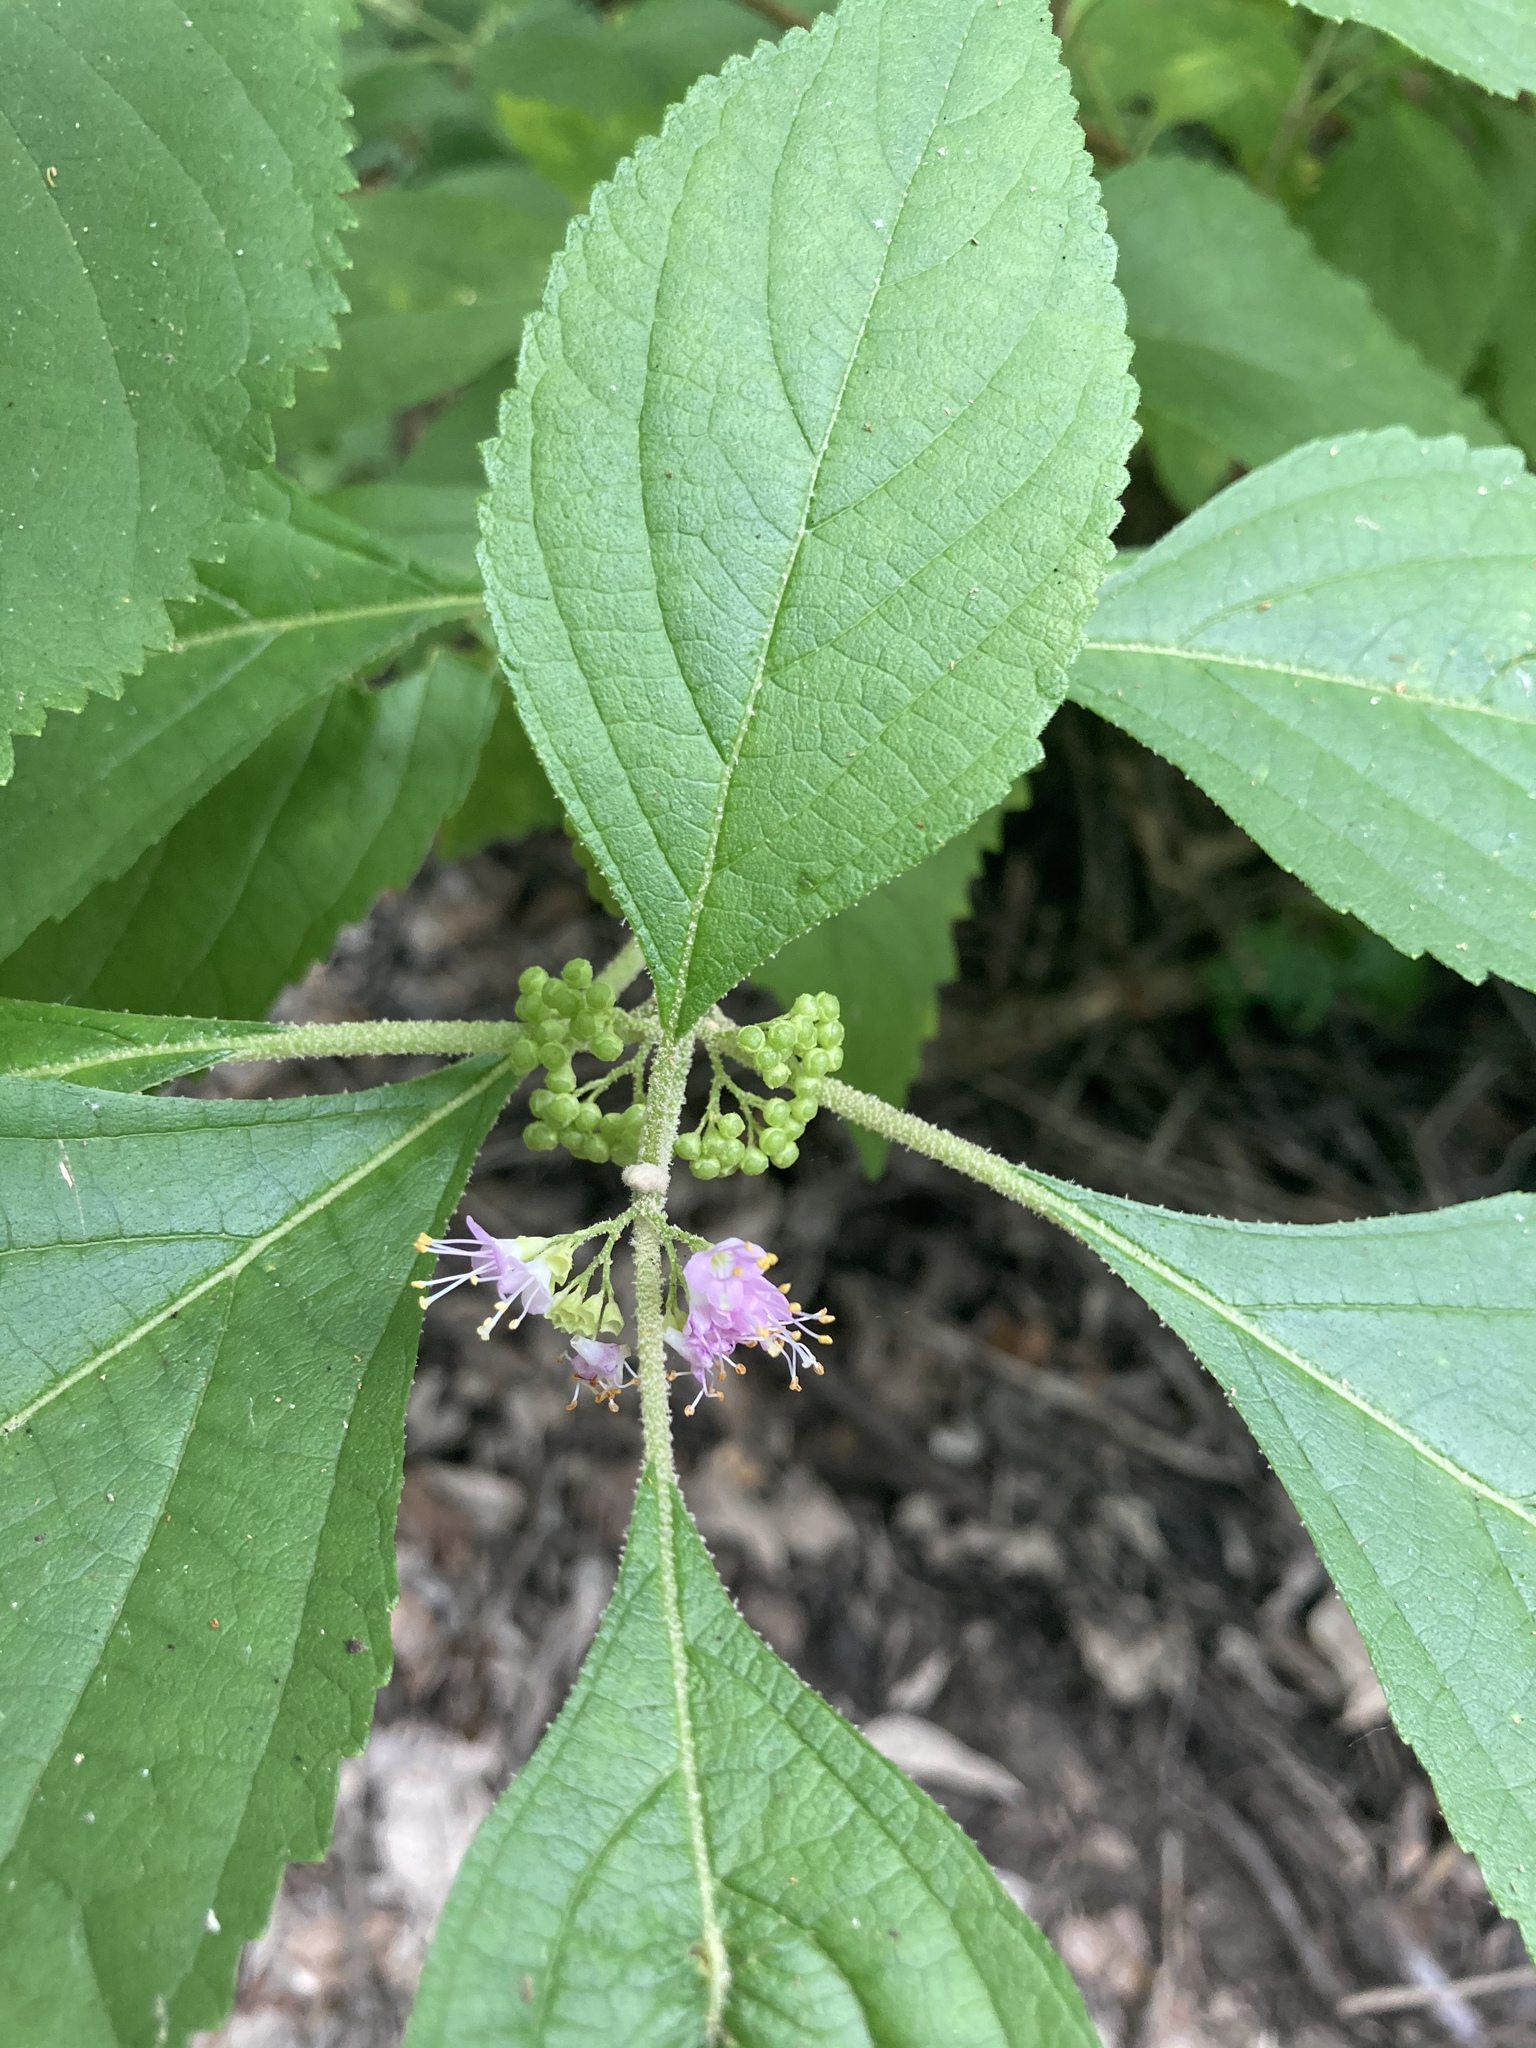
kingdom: Plantae
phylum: Tracheophyta
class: Magnoliopsida
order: Lamiales
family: Lamiaceae
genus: Callicarpa
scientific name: Callicarpa americana
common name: American beautyberry
